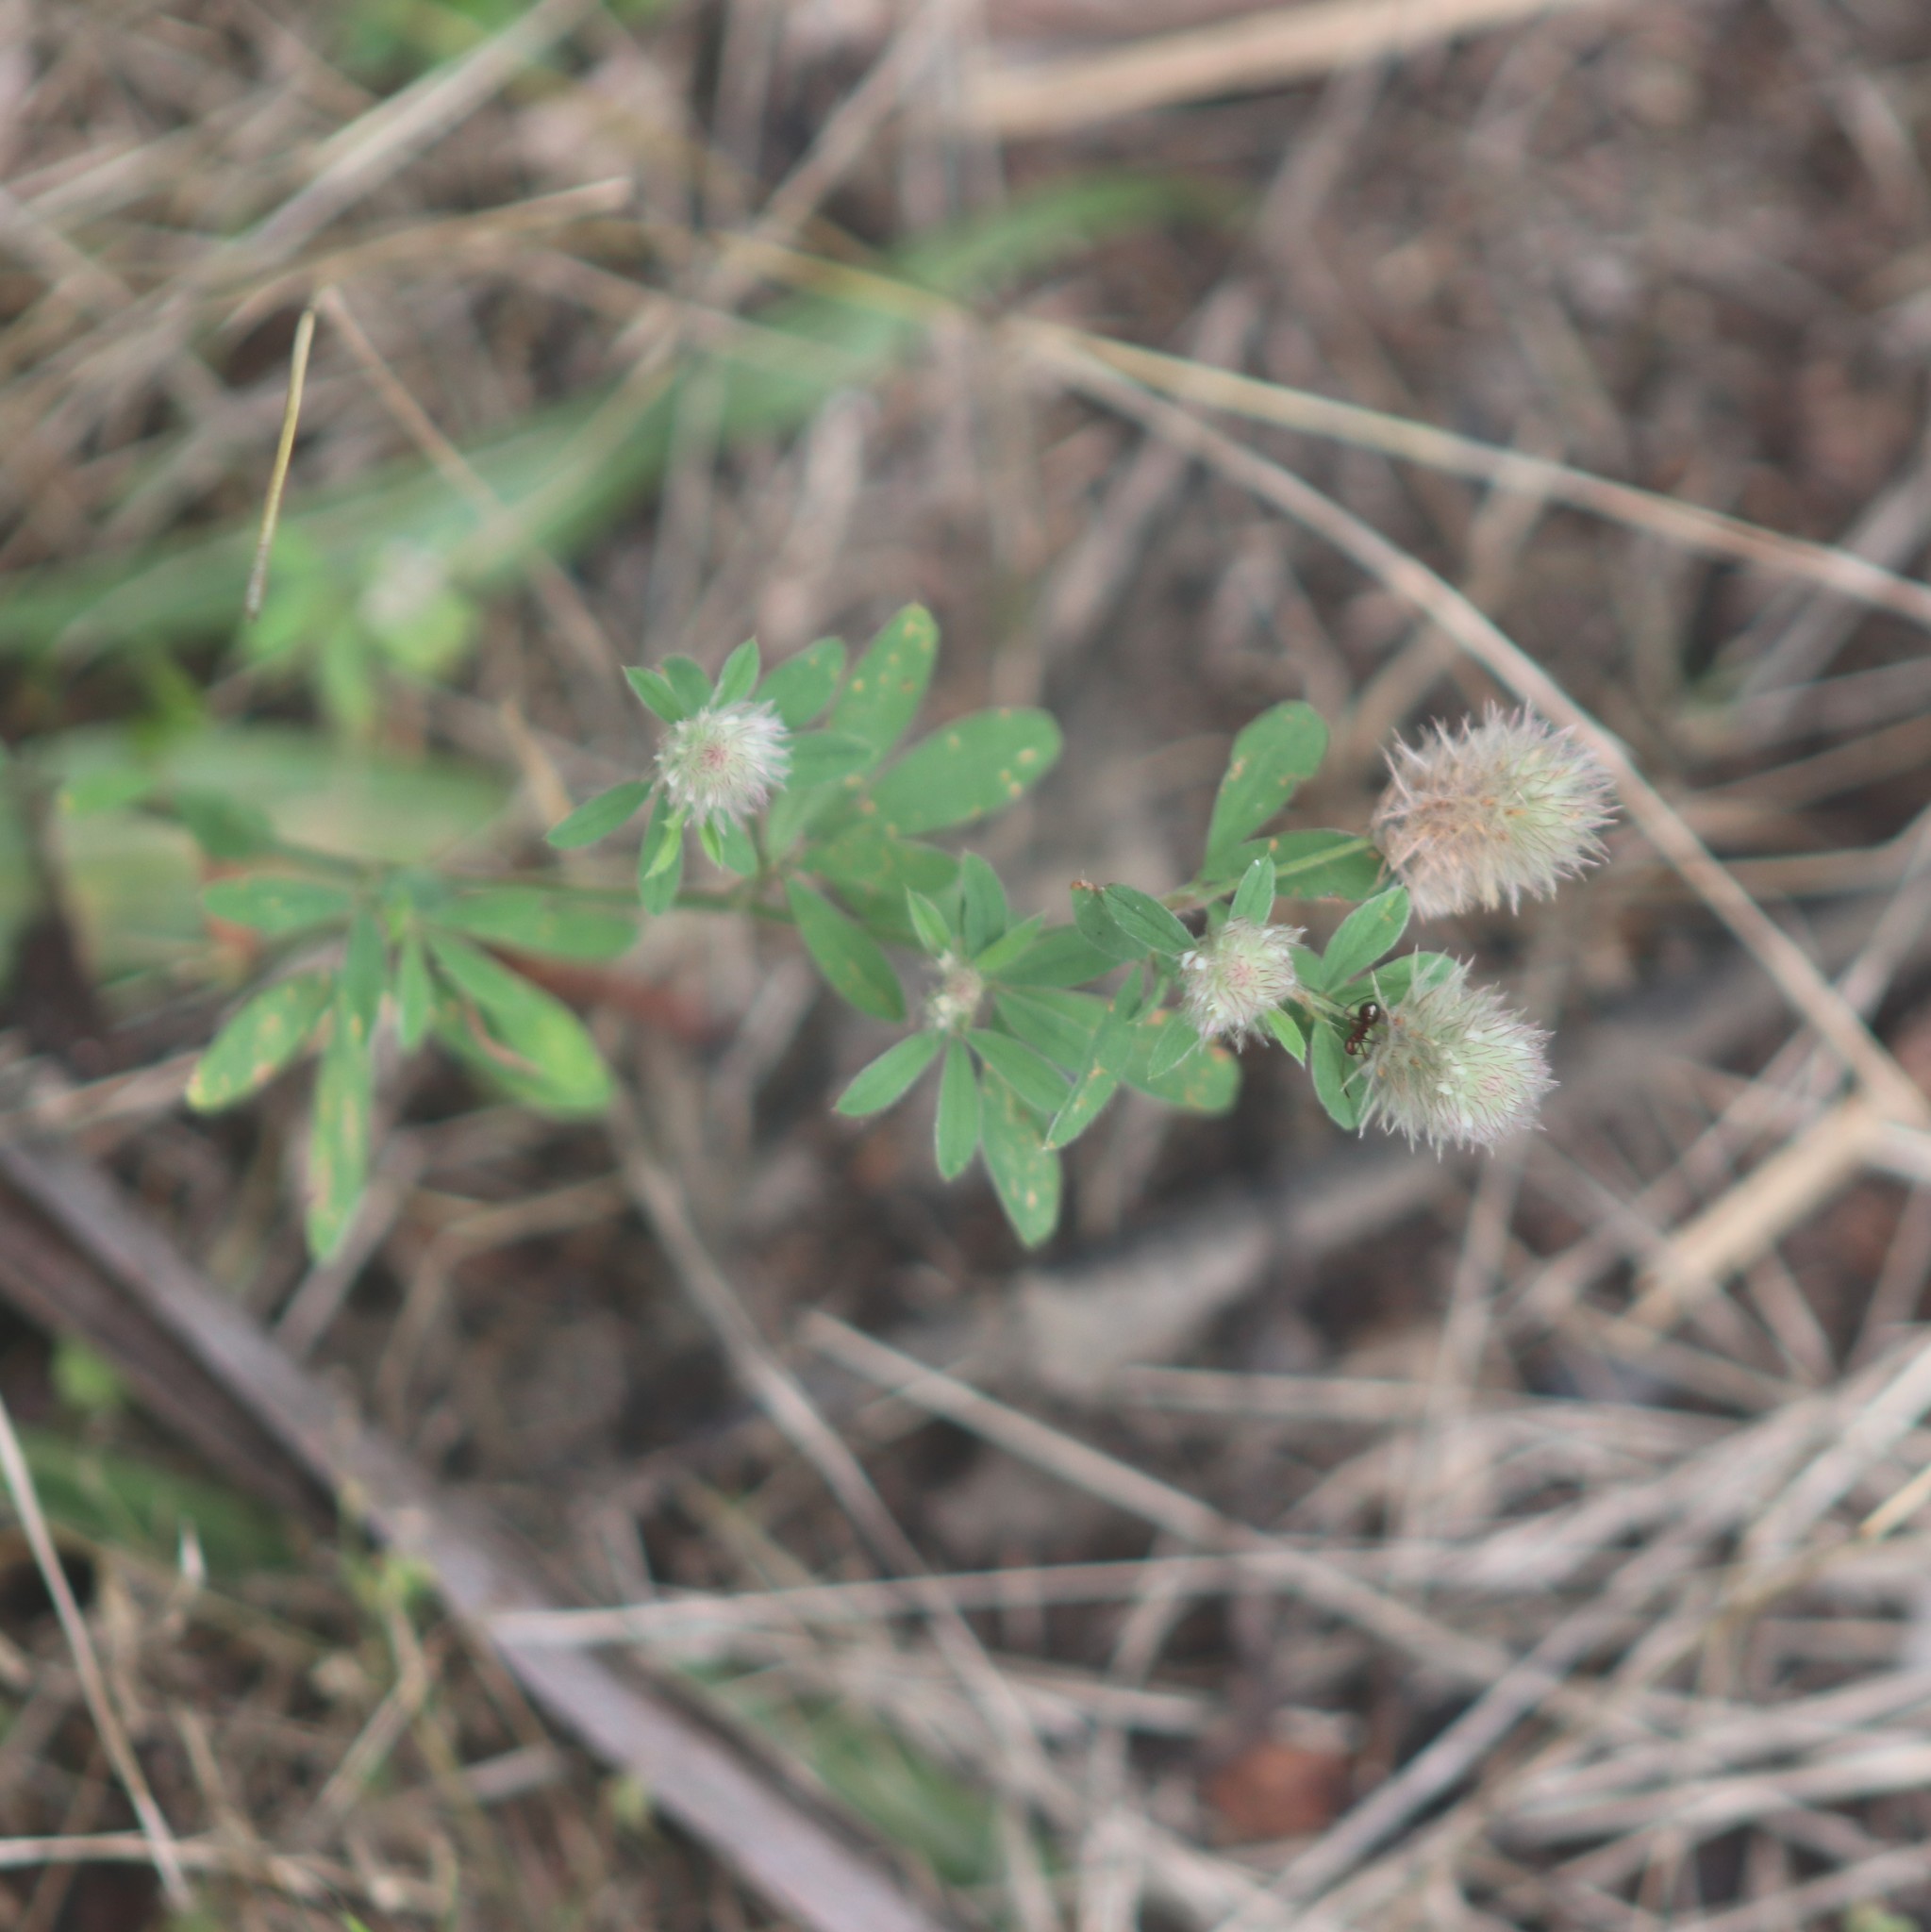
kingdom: Plantae
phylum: Tracheophyta
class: Magnoliopsida
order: Fabales
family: Fabaceae
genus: Trifolium
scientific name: Trifolium arvense
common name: Hare's-foot clover
